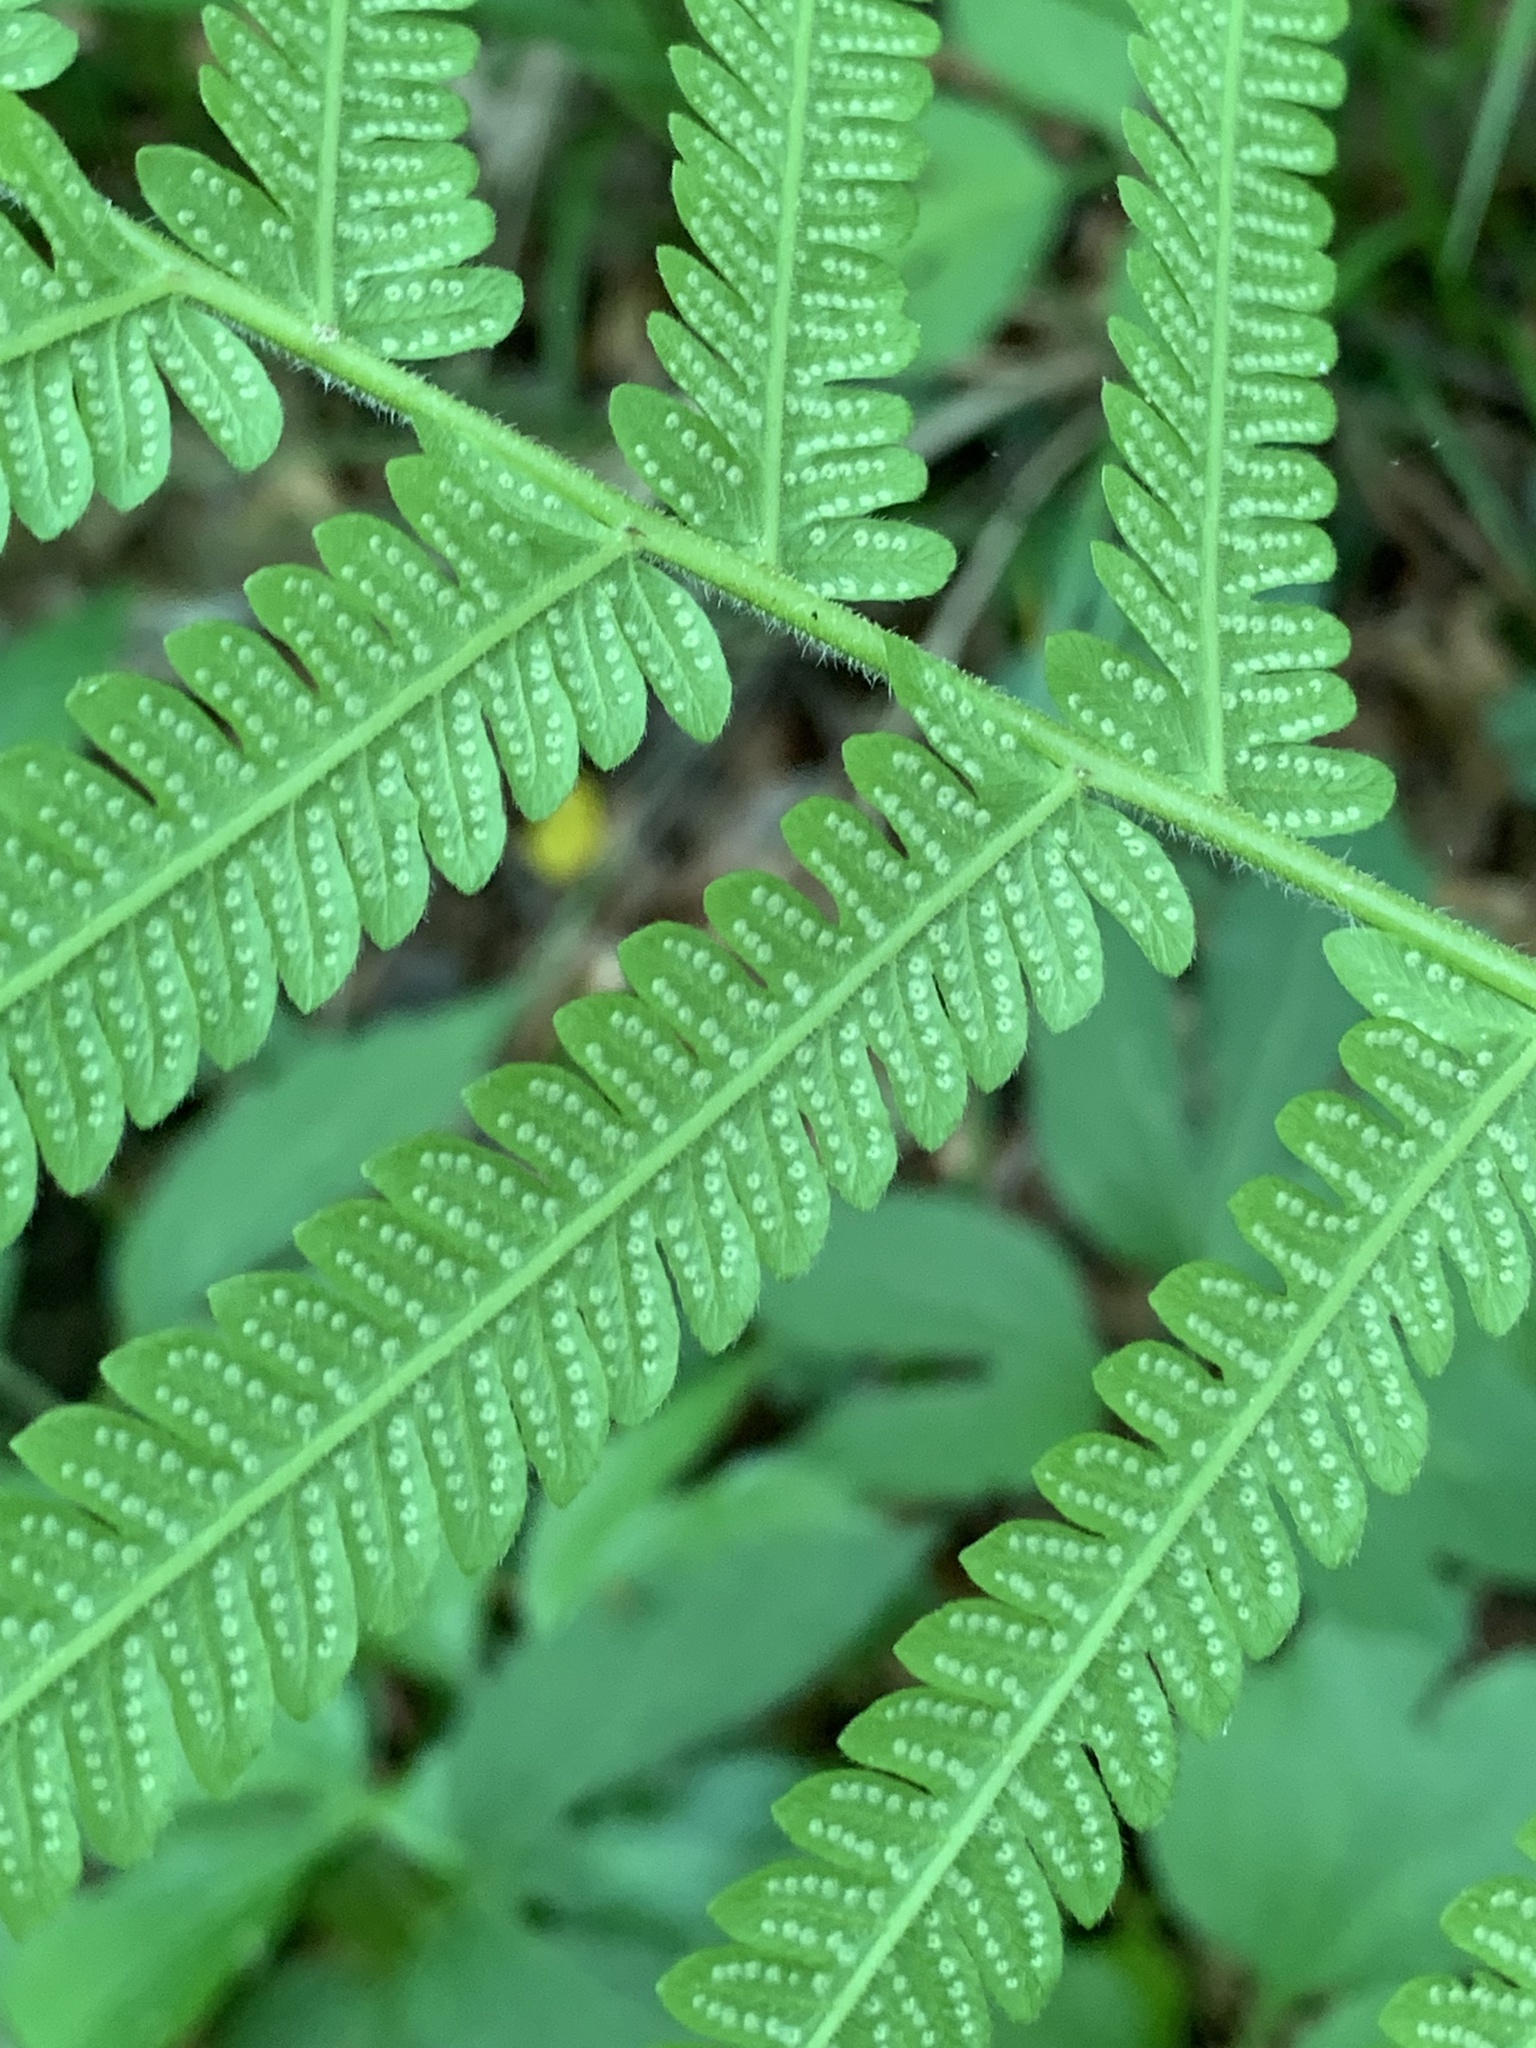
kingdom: Plantae
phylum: Tracheophyta
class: Polypodiopsida
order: Polypodiales
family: Thelypteridaceae
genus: Pelazoneuron
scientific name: Pelazoneuron kunthii
